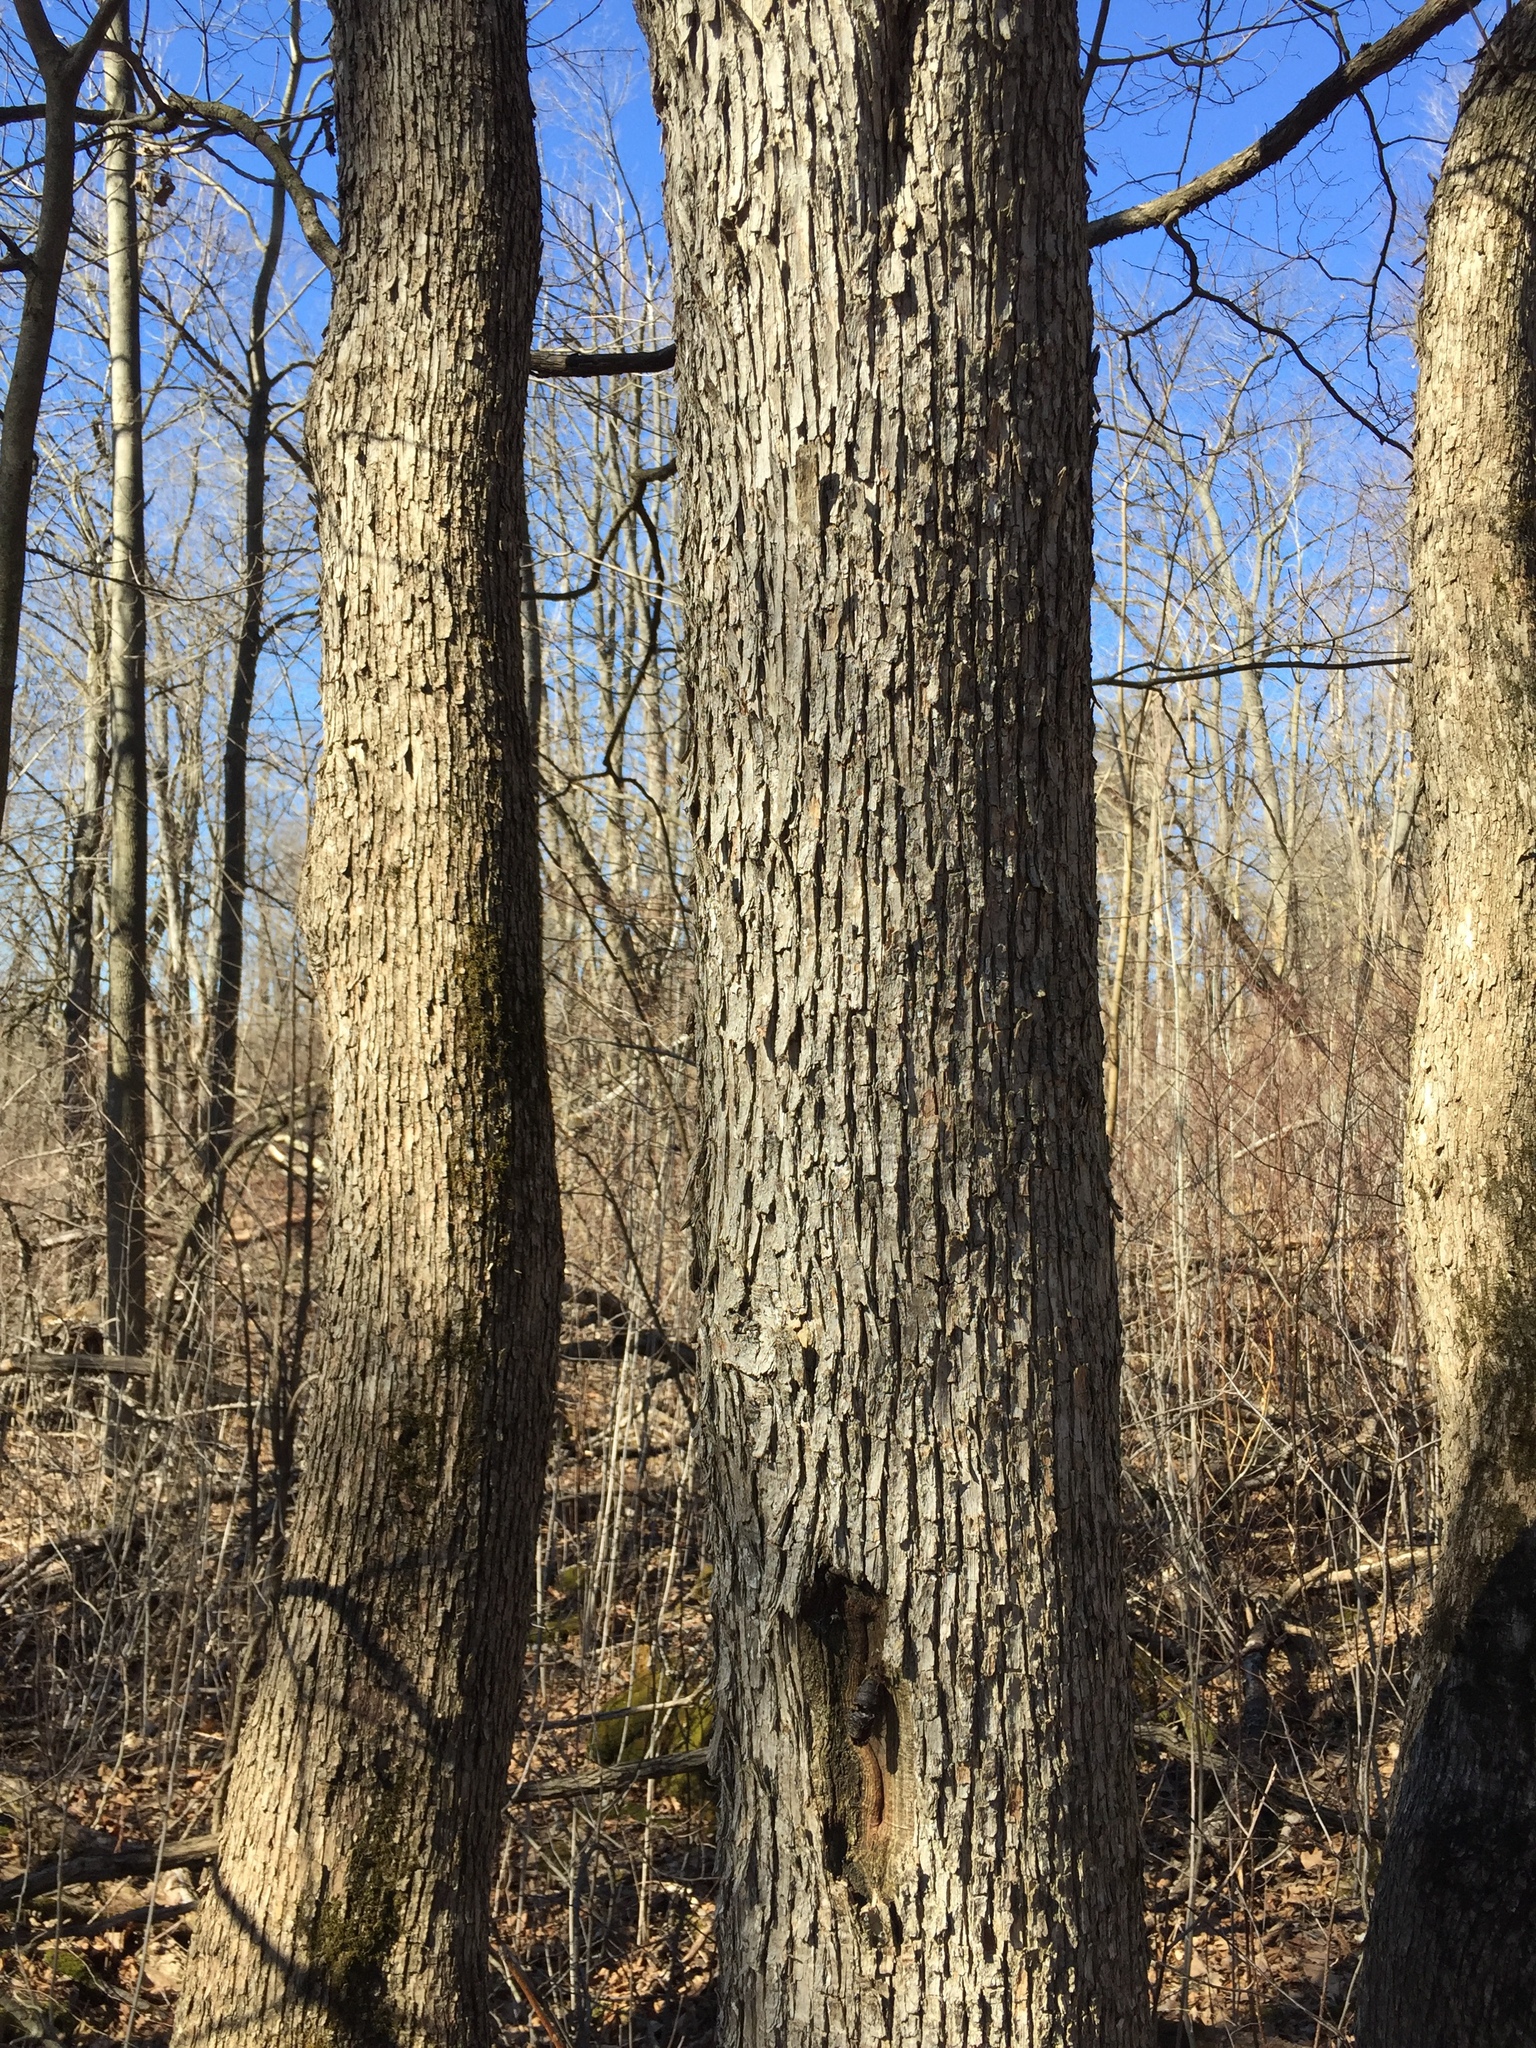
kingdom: Plantae
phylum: Tracheophyta
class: Magnoliopsida
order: Fagales
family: Betulaceae
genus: Ostrya
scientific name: Ostrya virginiana
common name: Ironwood
